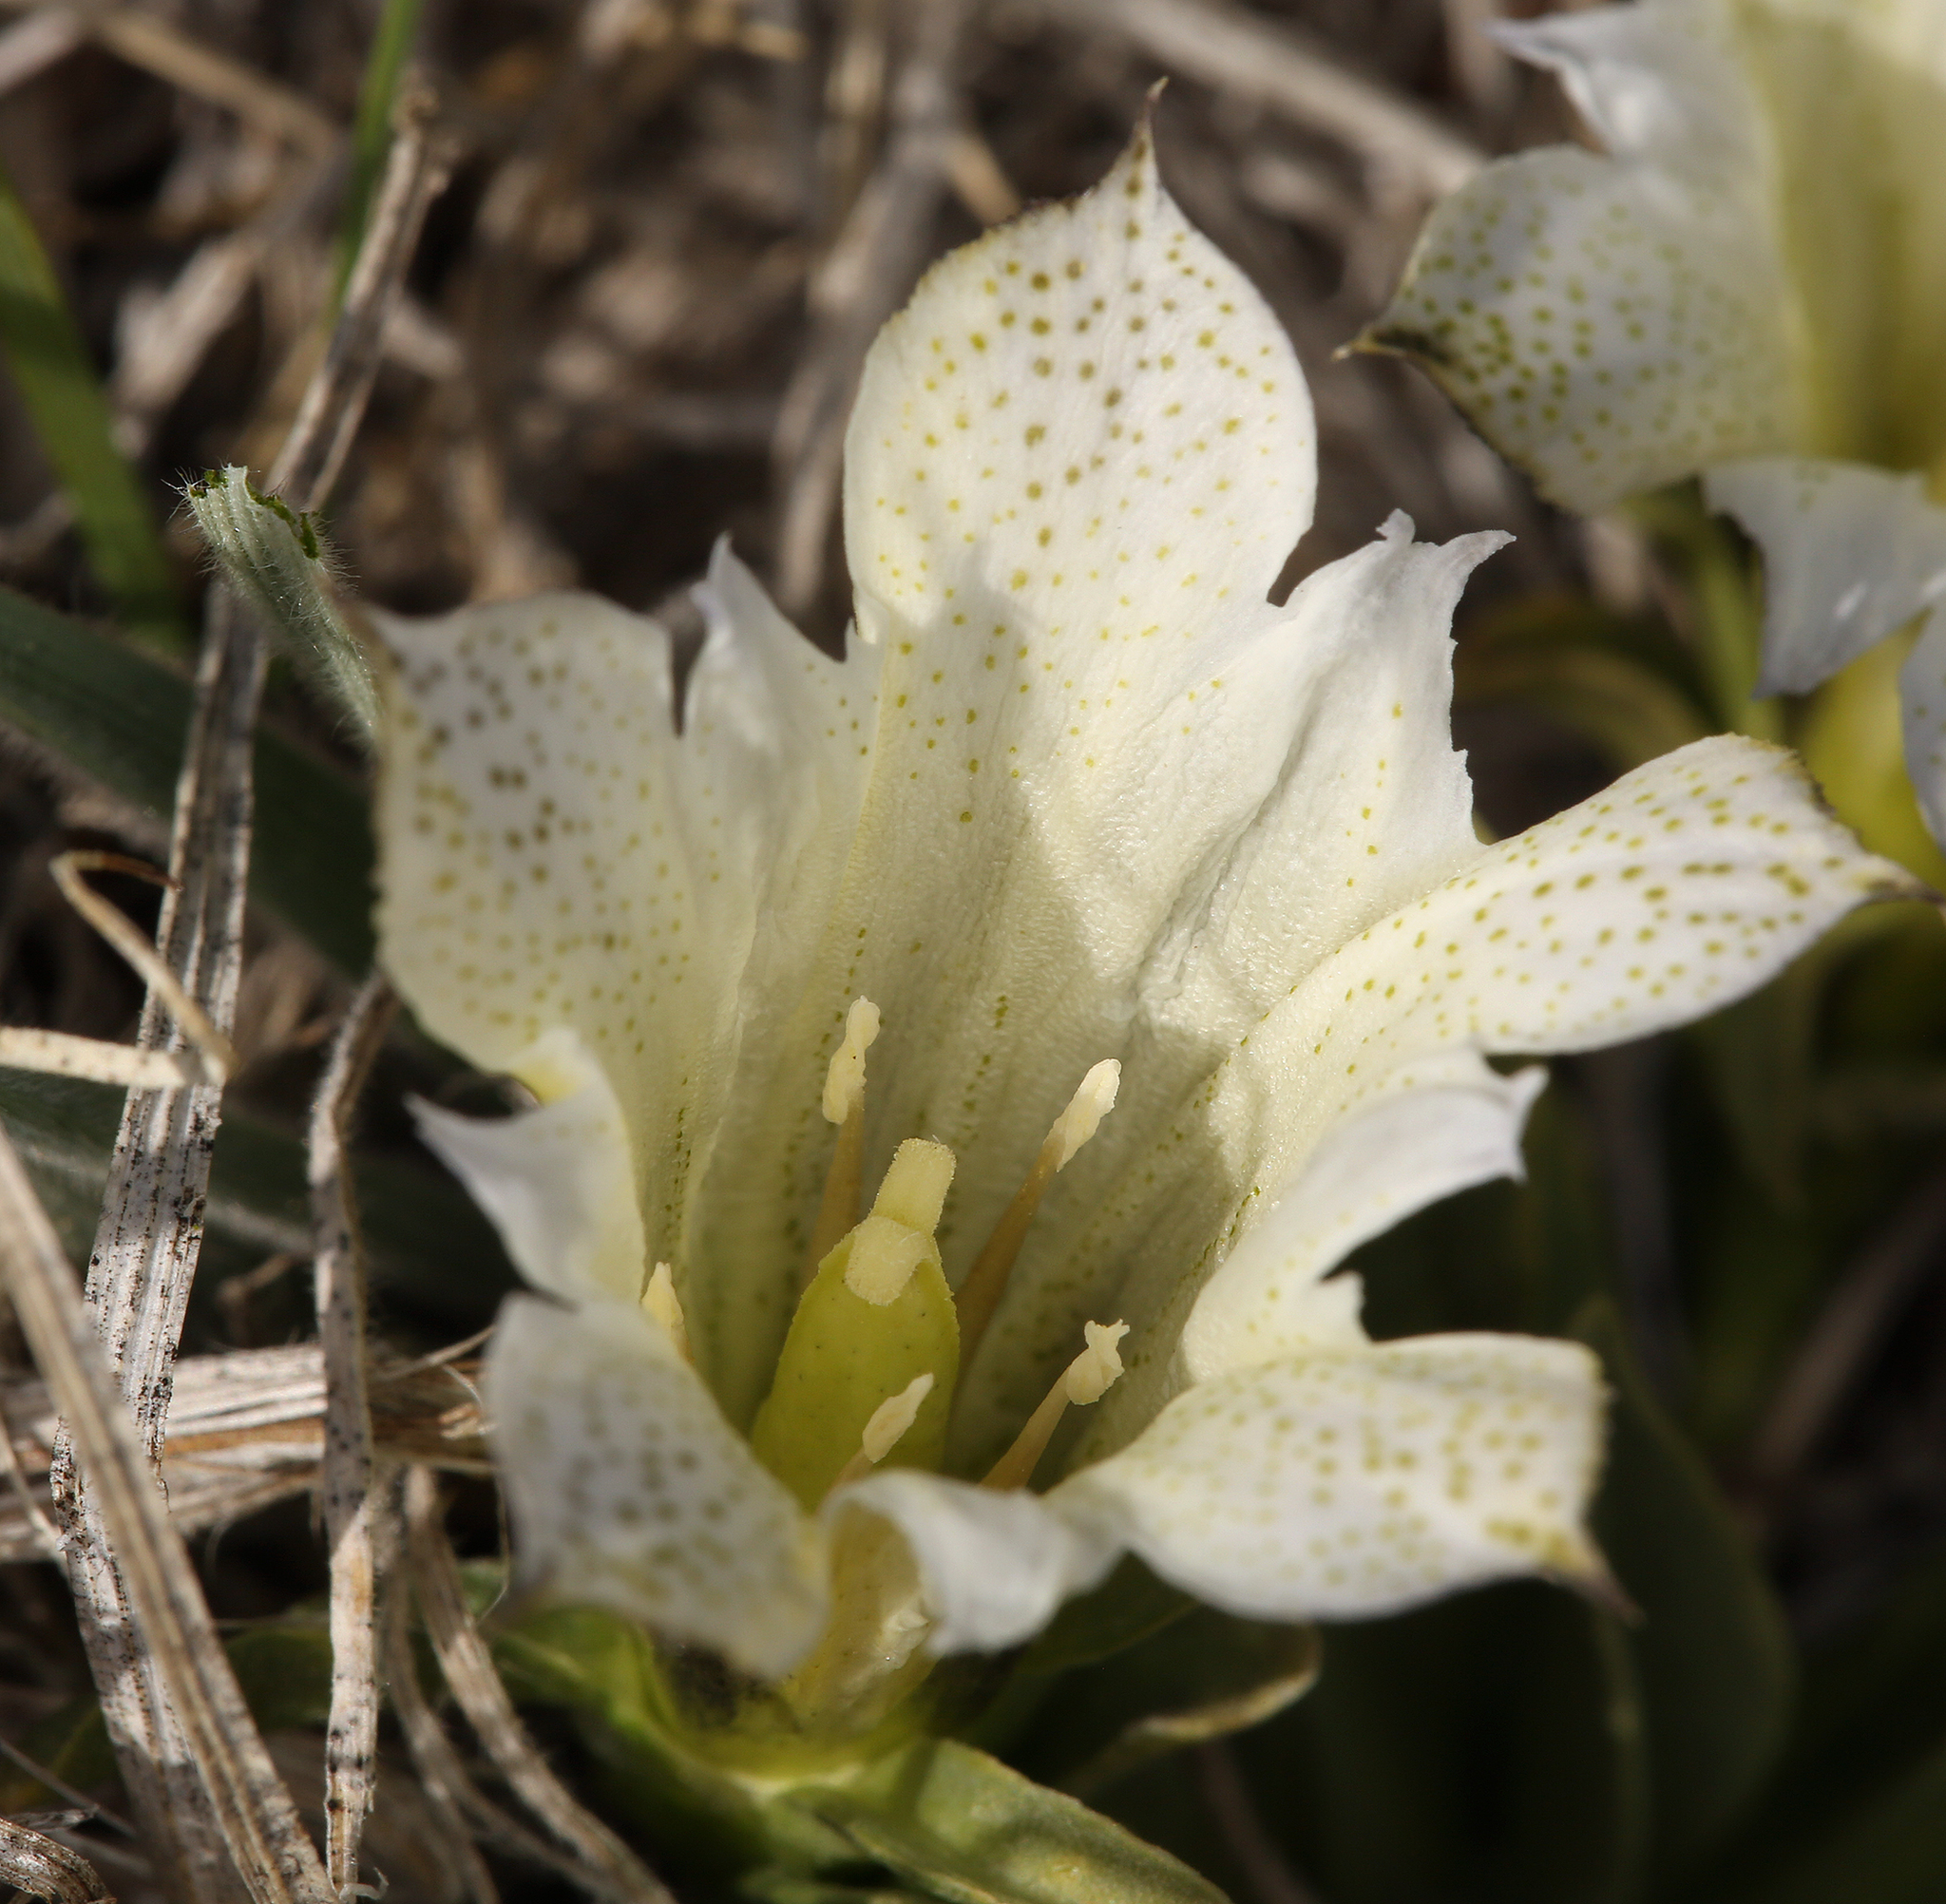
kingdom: Plantae
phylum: Tracheophyta
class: Magnoliopsida
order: Gentianales
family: Gentianaceae
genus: Gentiana
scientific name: Gentiana newberryi
